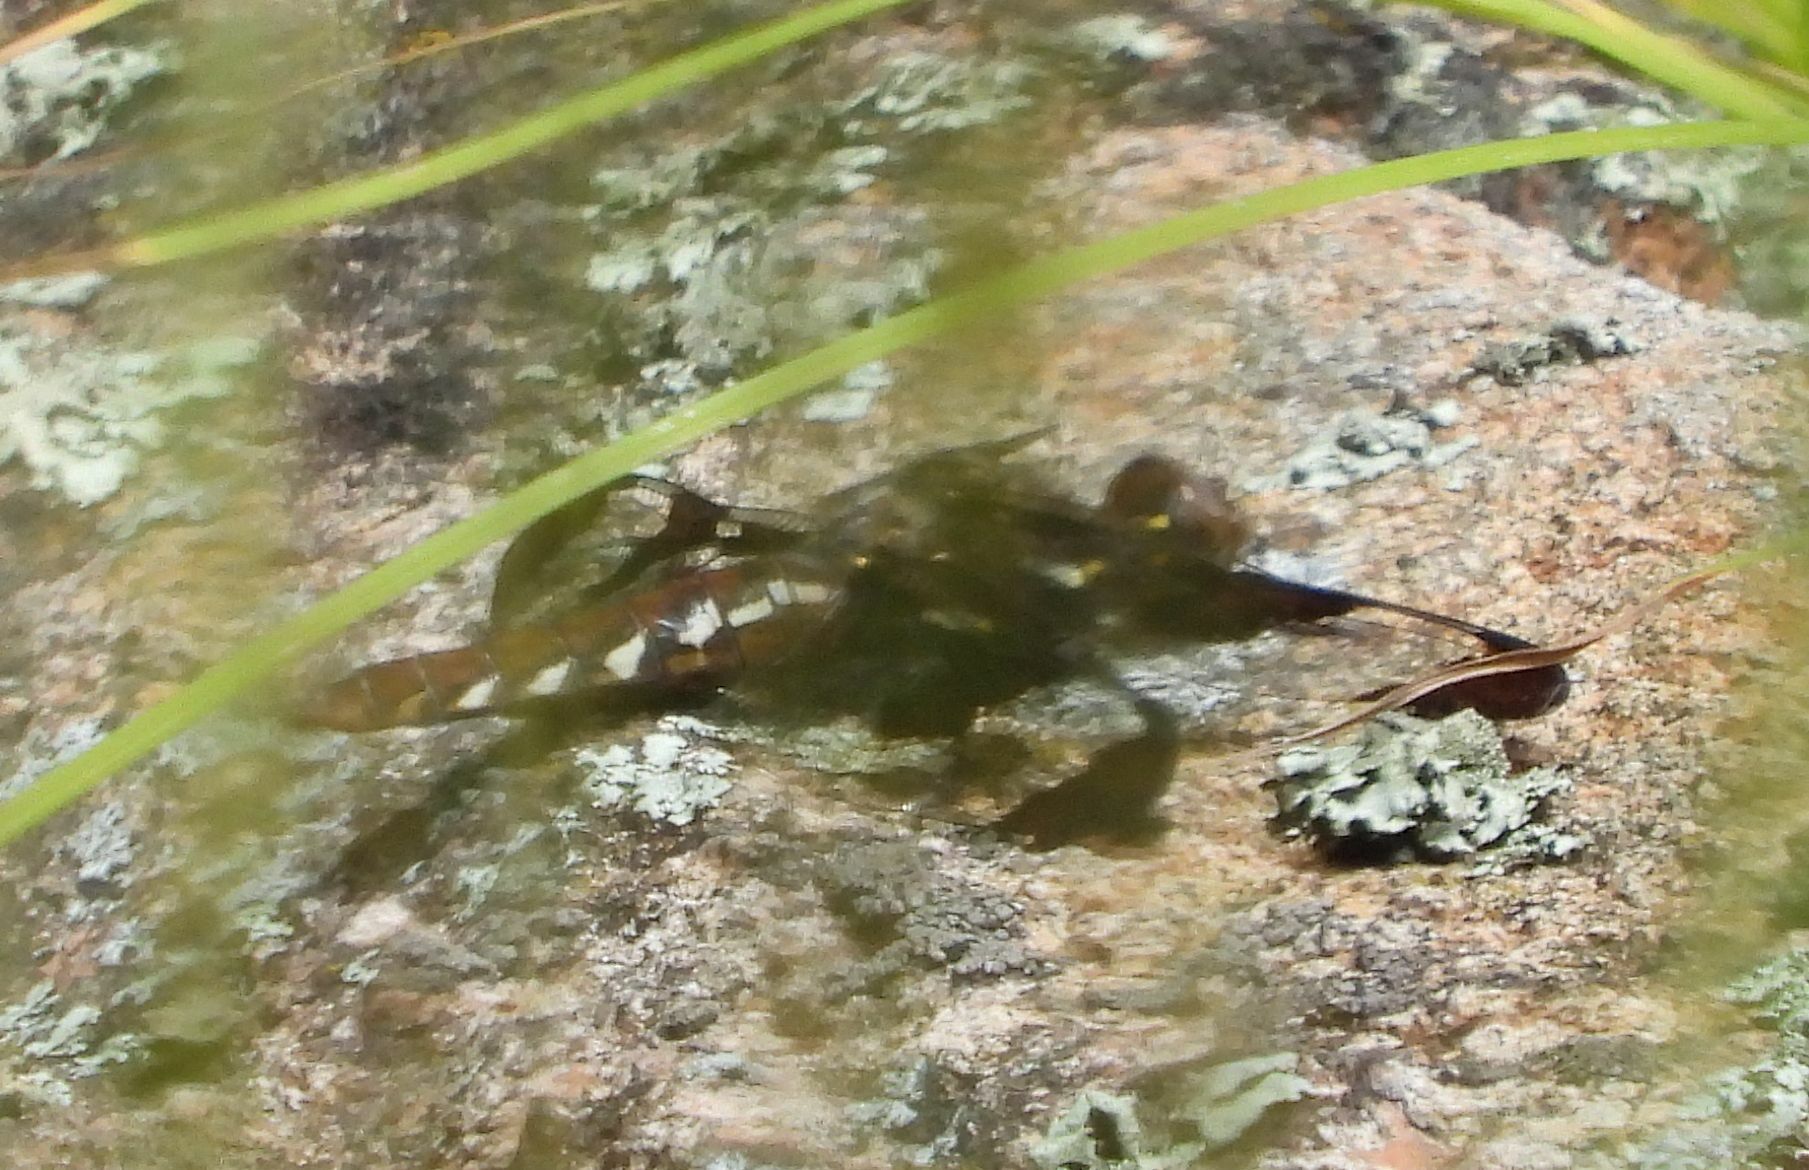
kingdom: Animalia
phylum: Arthropoda
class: Insecta
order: Odonata
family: Libellulidae
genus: Plathemis
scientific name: Plathemis lydia
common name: Common whitetail
